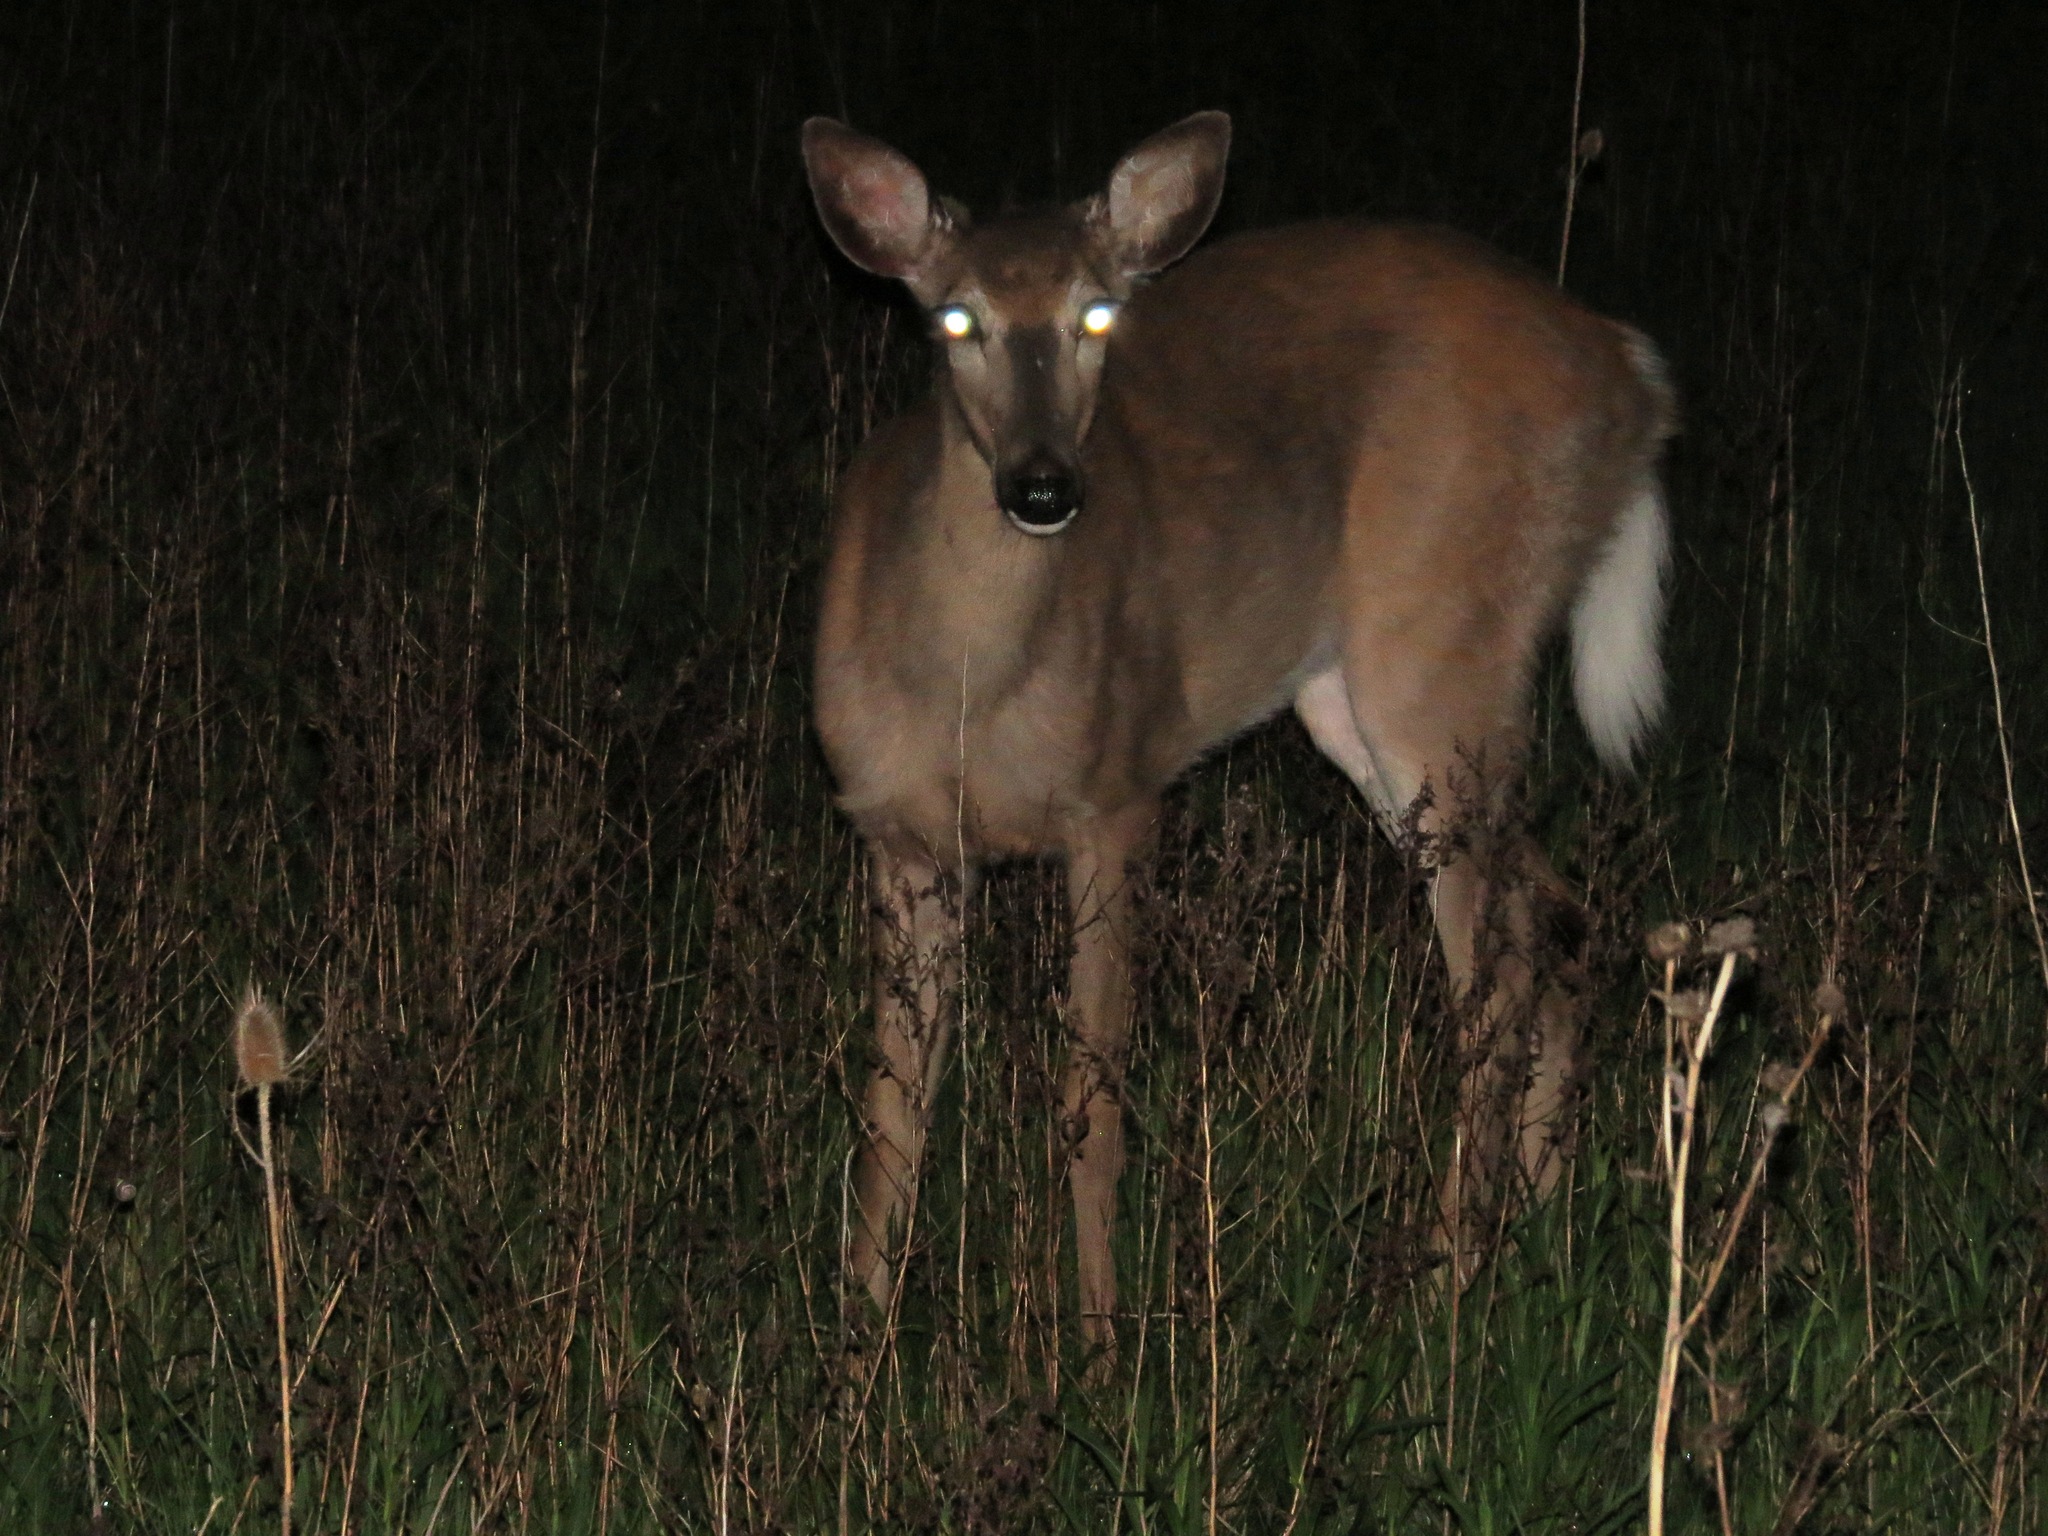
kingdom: Animalia
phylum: Chordata
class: Mammalia
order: Artiodactyla
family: Cervidae
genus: Odocoileus
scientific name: Odocoileus virginianus
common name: White-tailed deer
